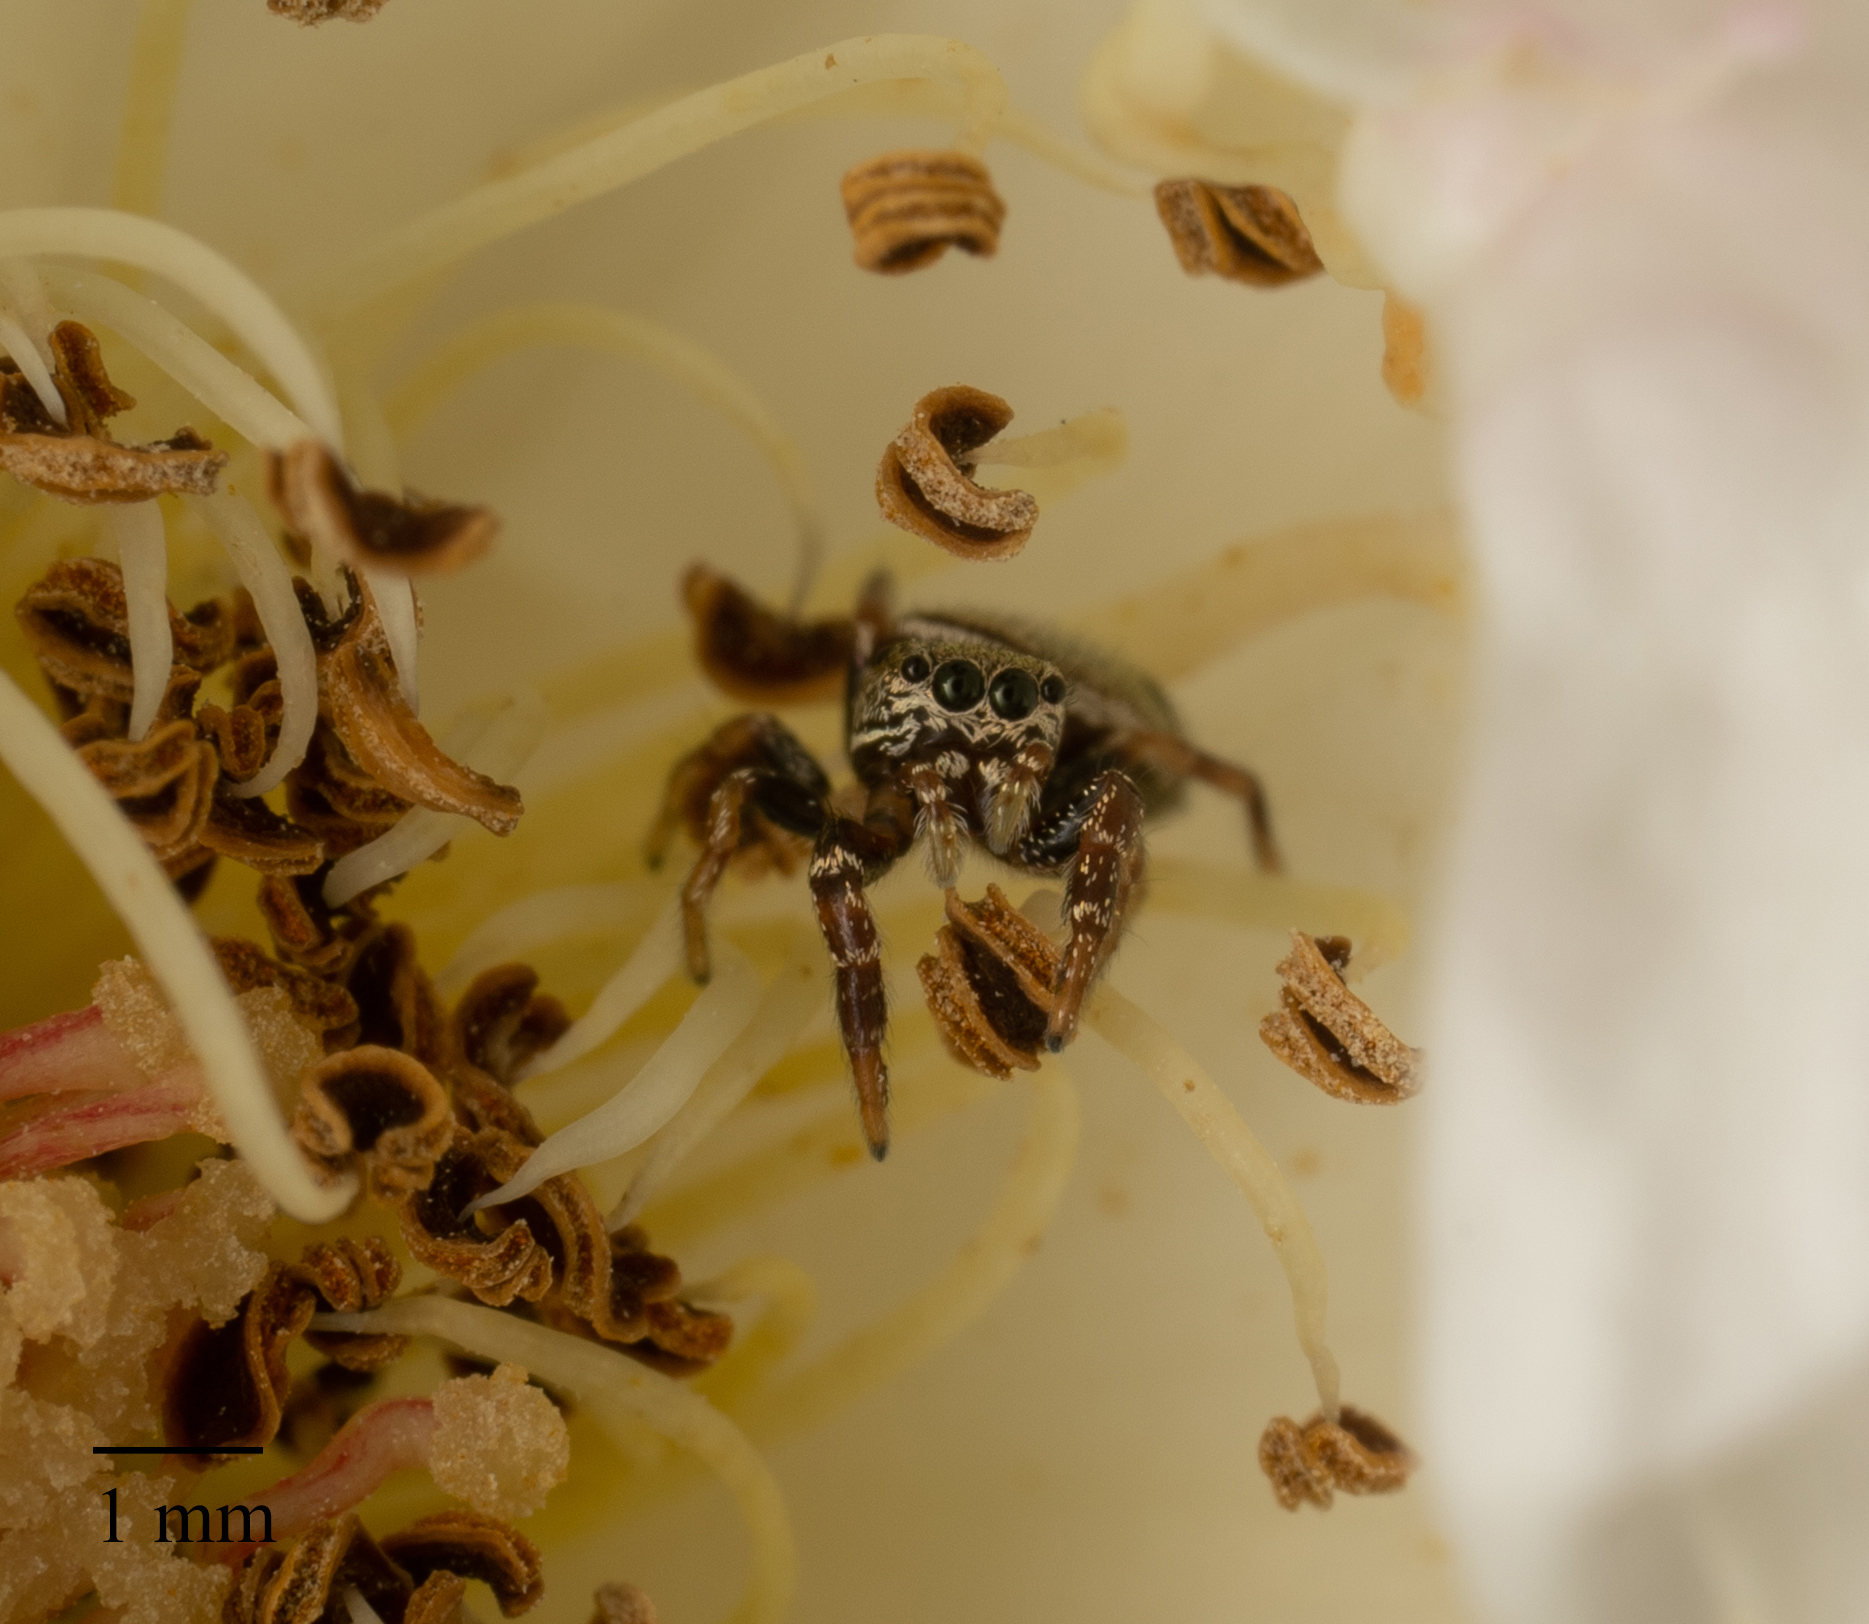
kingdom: Animalia
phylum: Arthropoda
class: Arachnida
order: Araneae
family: Salticidae
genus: Sassacus
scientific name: Sassacus vitis
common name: Jumping spiders
